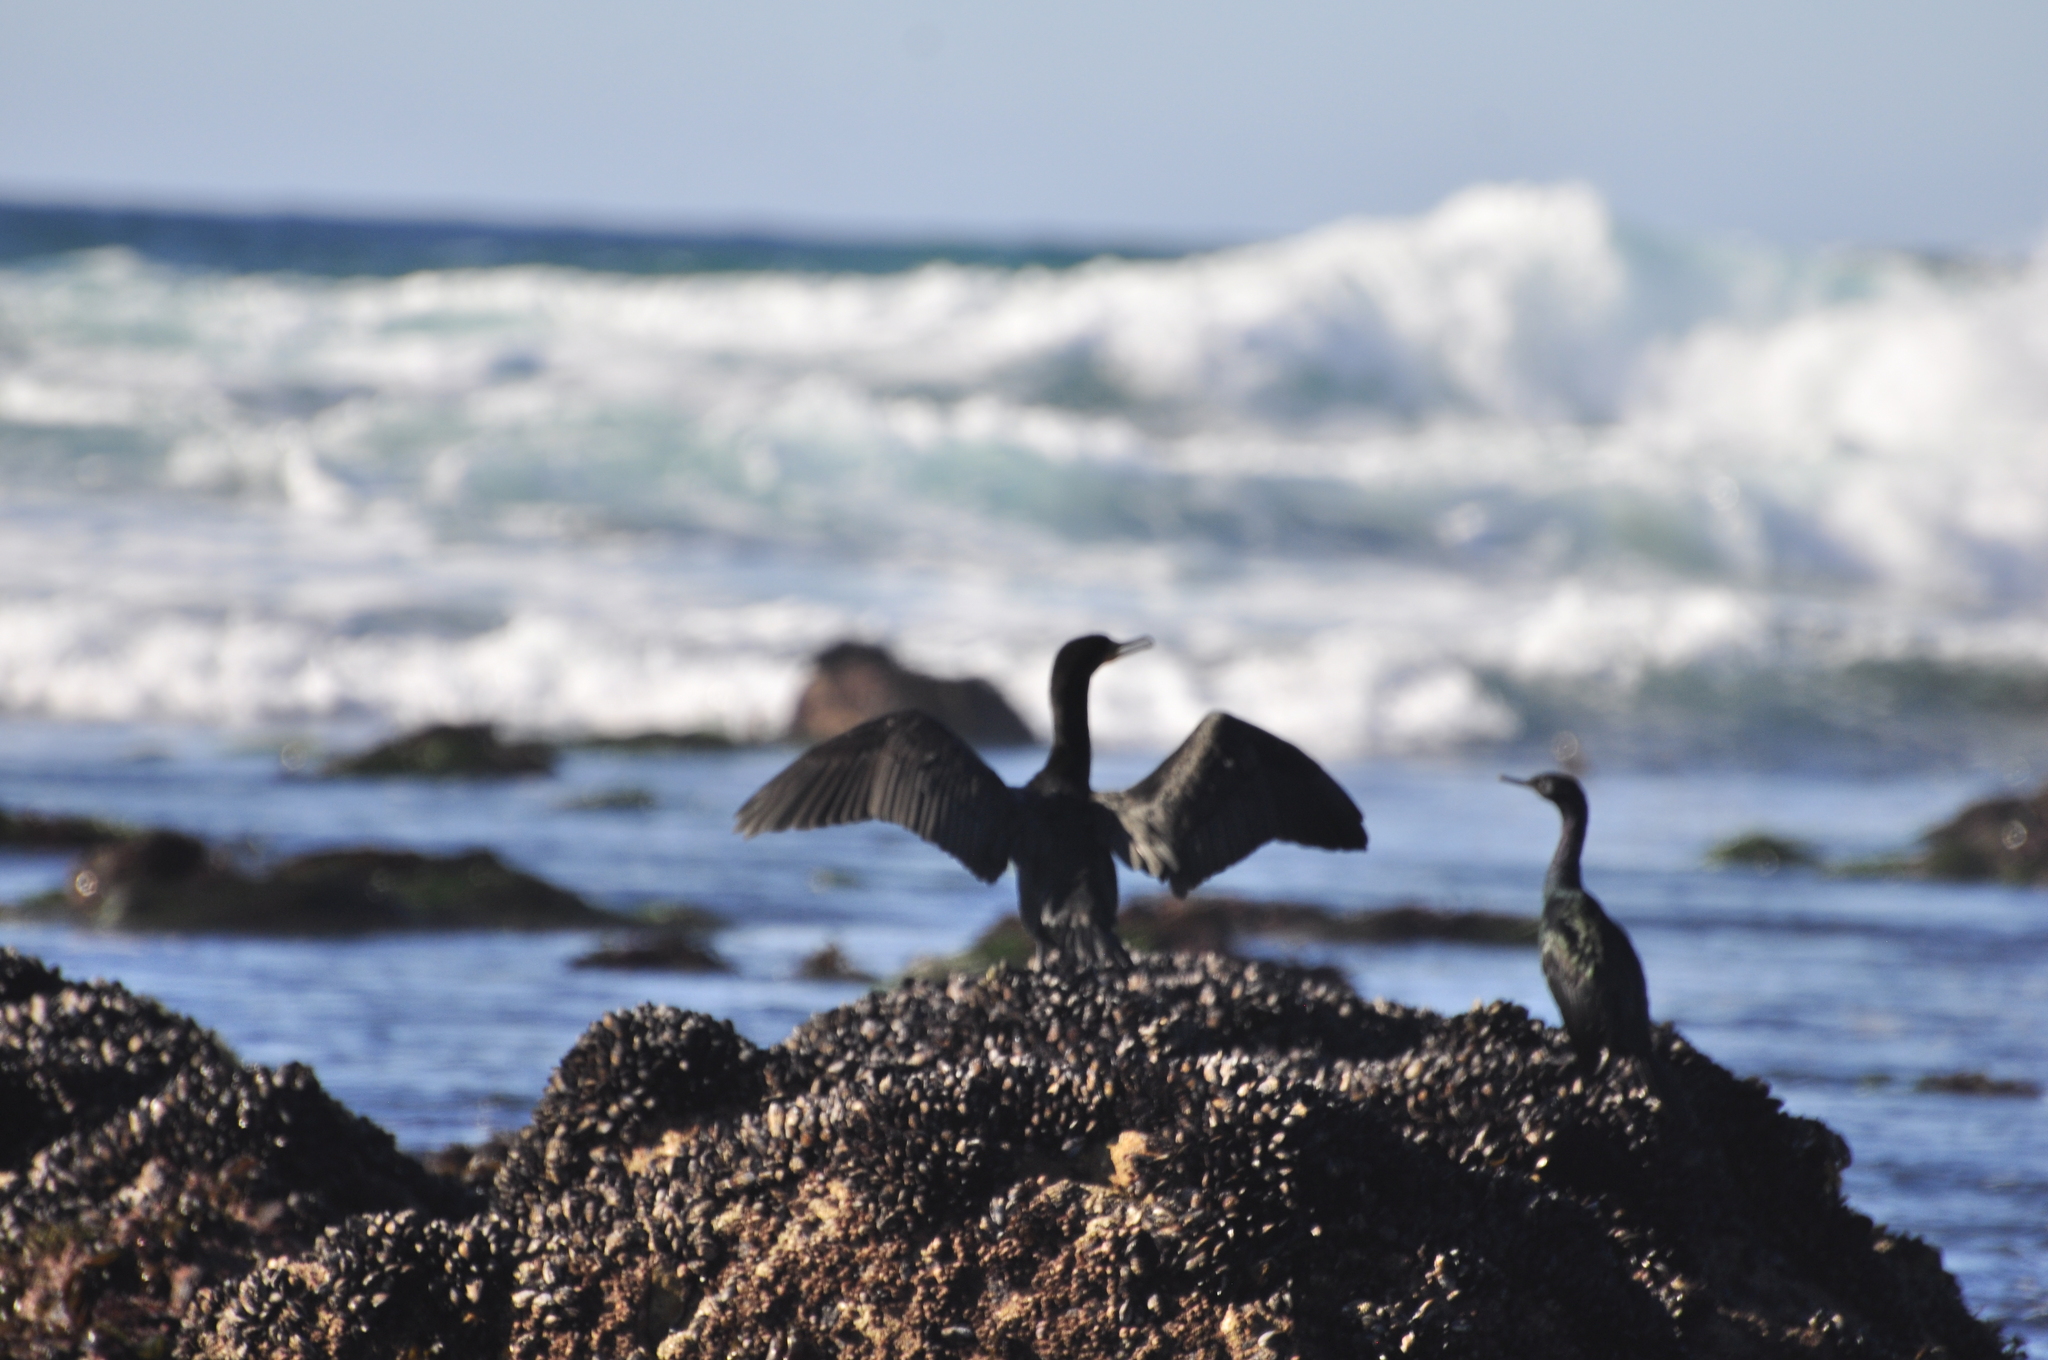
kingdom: Animalia
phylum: Chordata
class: Aves
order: Suliformes
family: Phalacrocoracidae
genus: Phalacrocorax
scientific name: Phalacrocorax auritus
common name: Double-crested cormorant
